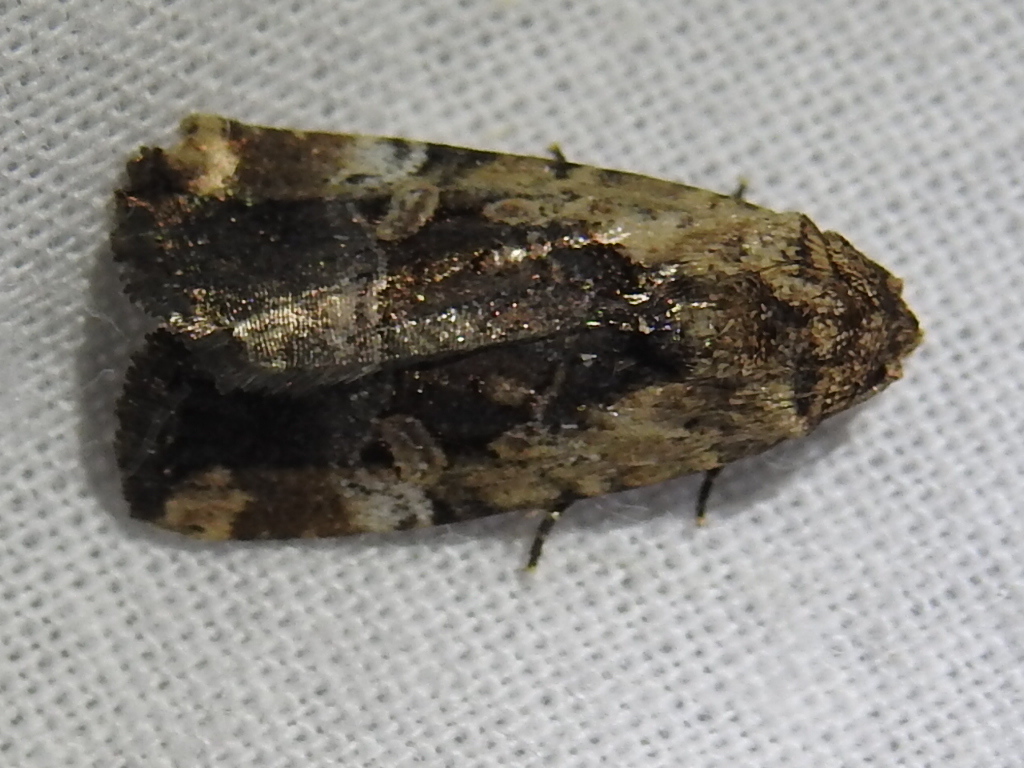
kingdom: Animalia
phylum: Arthropoda
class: Insecta
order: Lepidoptera
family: Noctuidae
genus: Elaphria
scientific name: Elaphria chalcedonia
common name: Chalcedony midget
